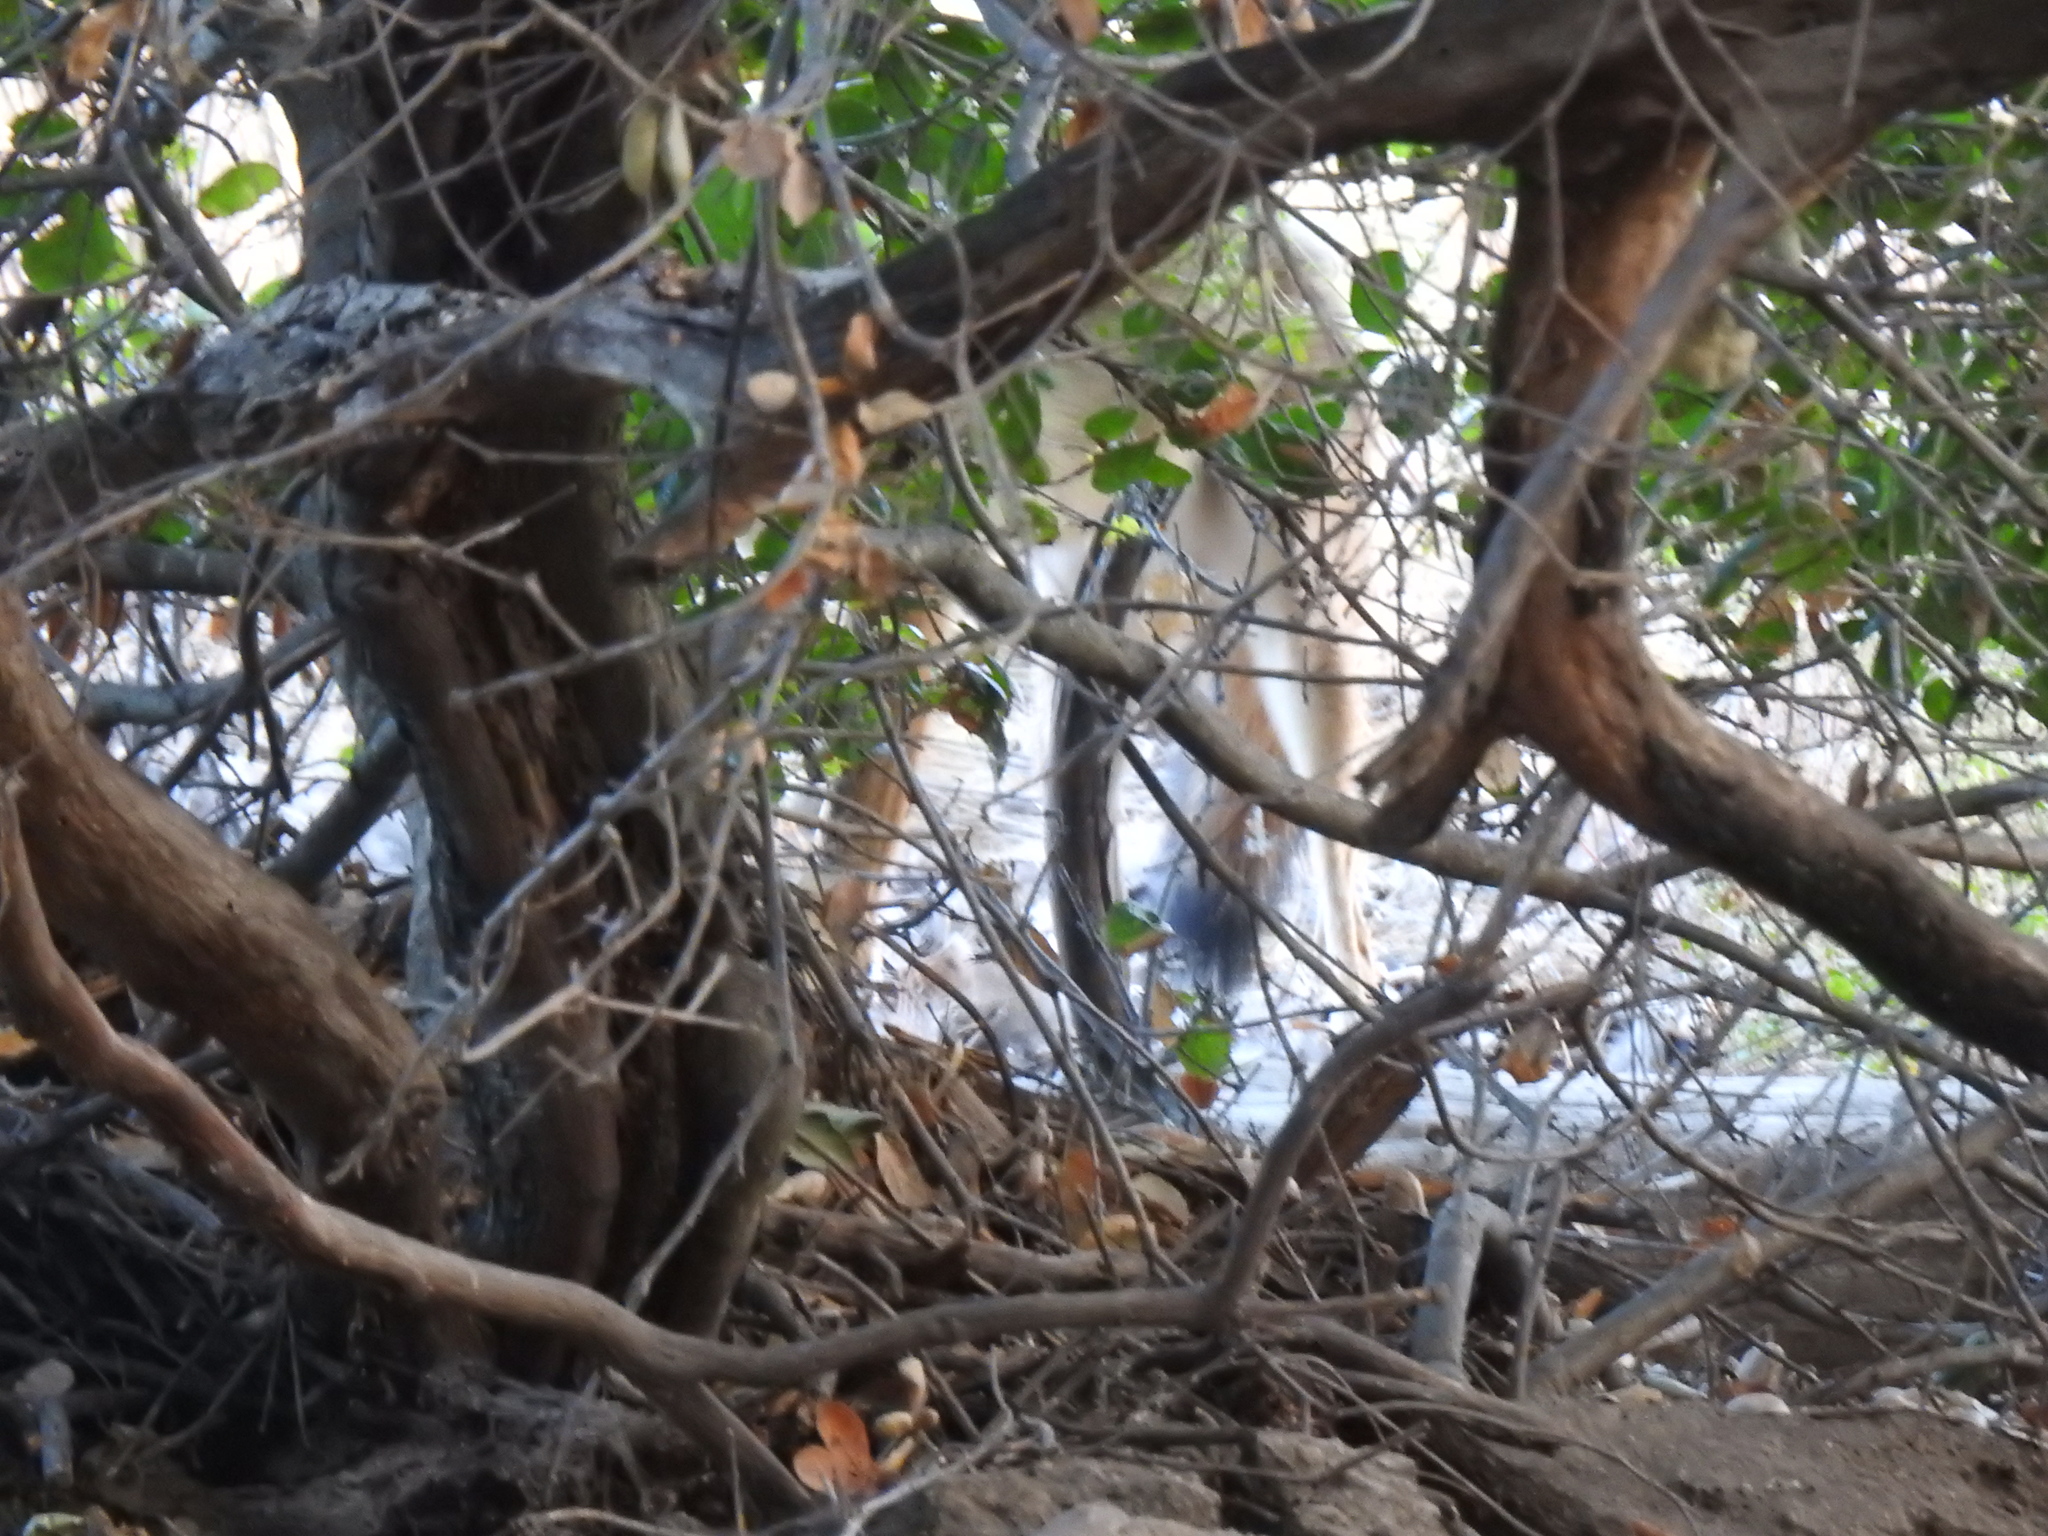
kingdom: Animalia
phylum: Chordata
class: Mammalia
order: Carnivora
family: Canidae
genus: Canis
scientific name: Canis latrans
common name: Coyote
